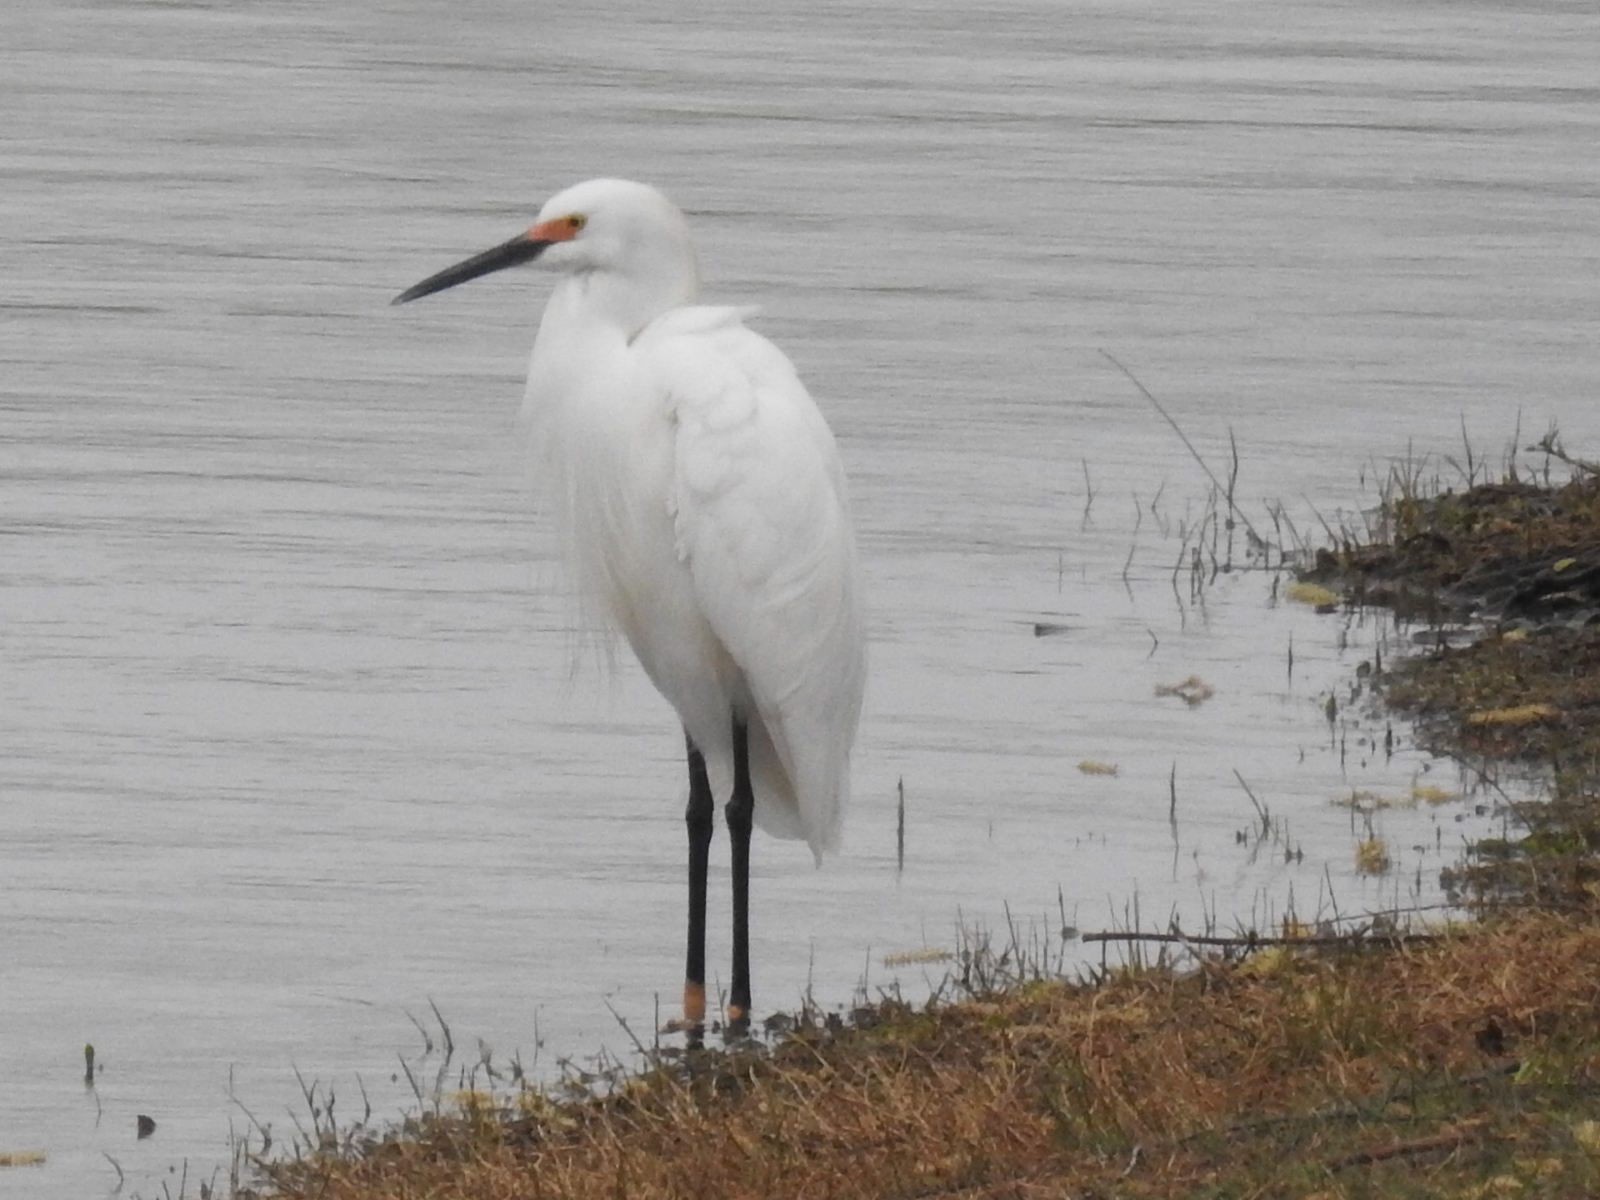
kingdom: Animalia
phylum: Chordata
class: Aves
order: Pelecaniformes
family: Ardeidae
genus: Egretta
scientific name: Egretta thula
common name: Snowy egret
